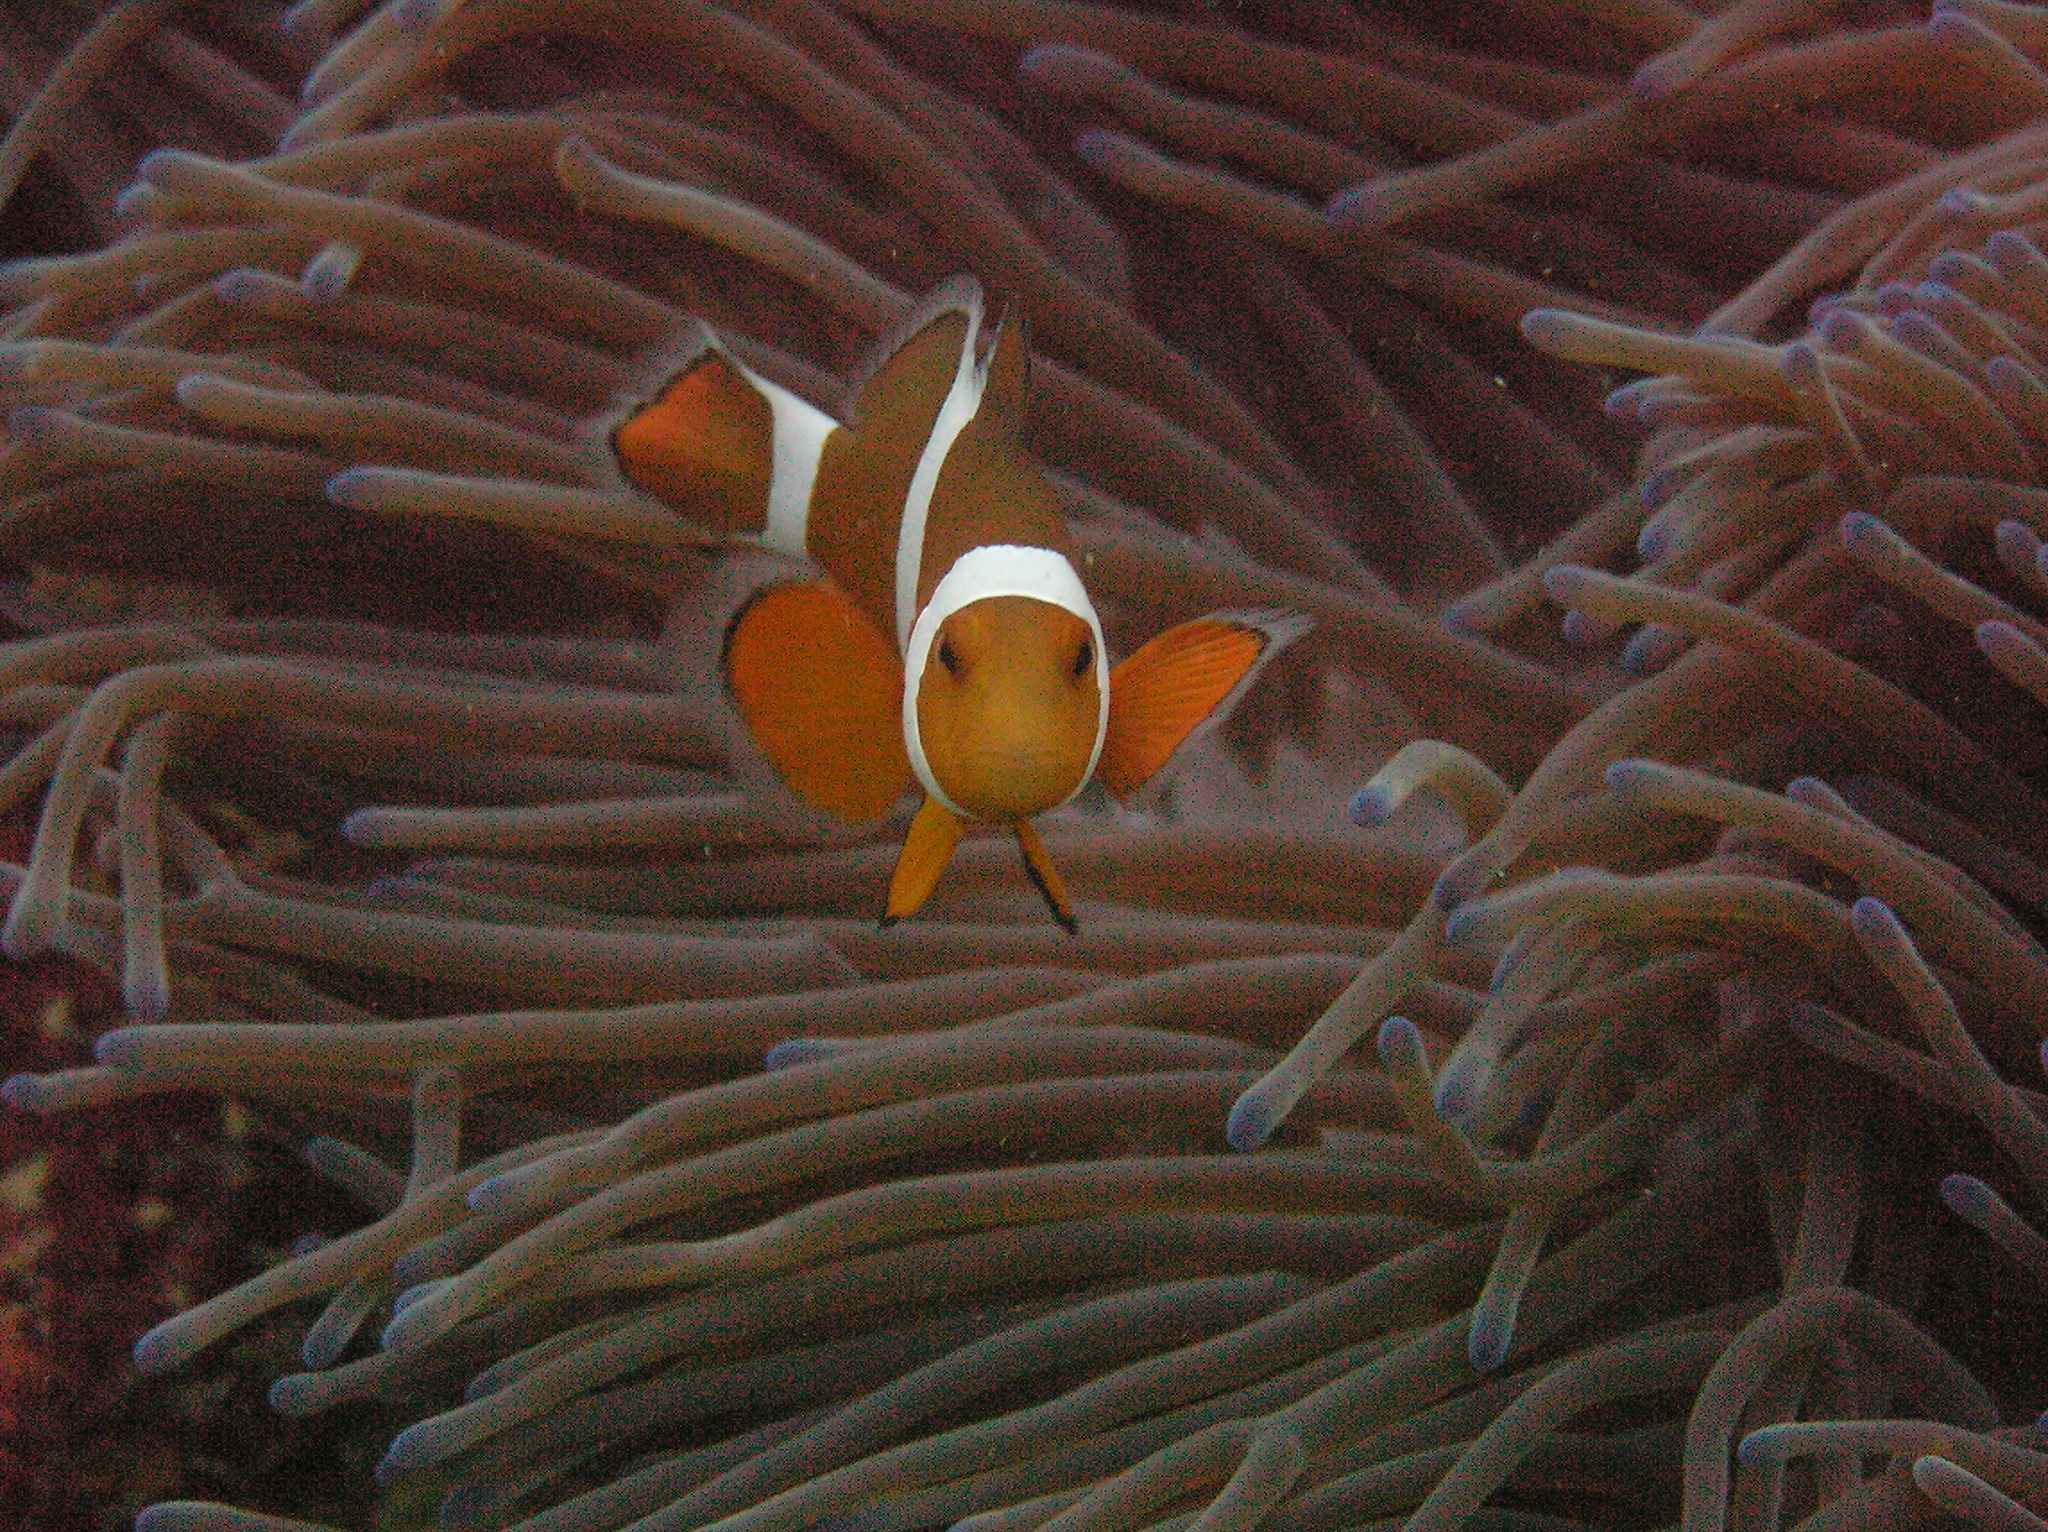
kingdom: Animalia
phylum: Chordata
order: Perciformes
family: Pomacentridae
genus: Amphiprion
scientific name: Amphiprion ocellaris
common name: Clown anemonefish
